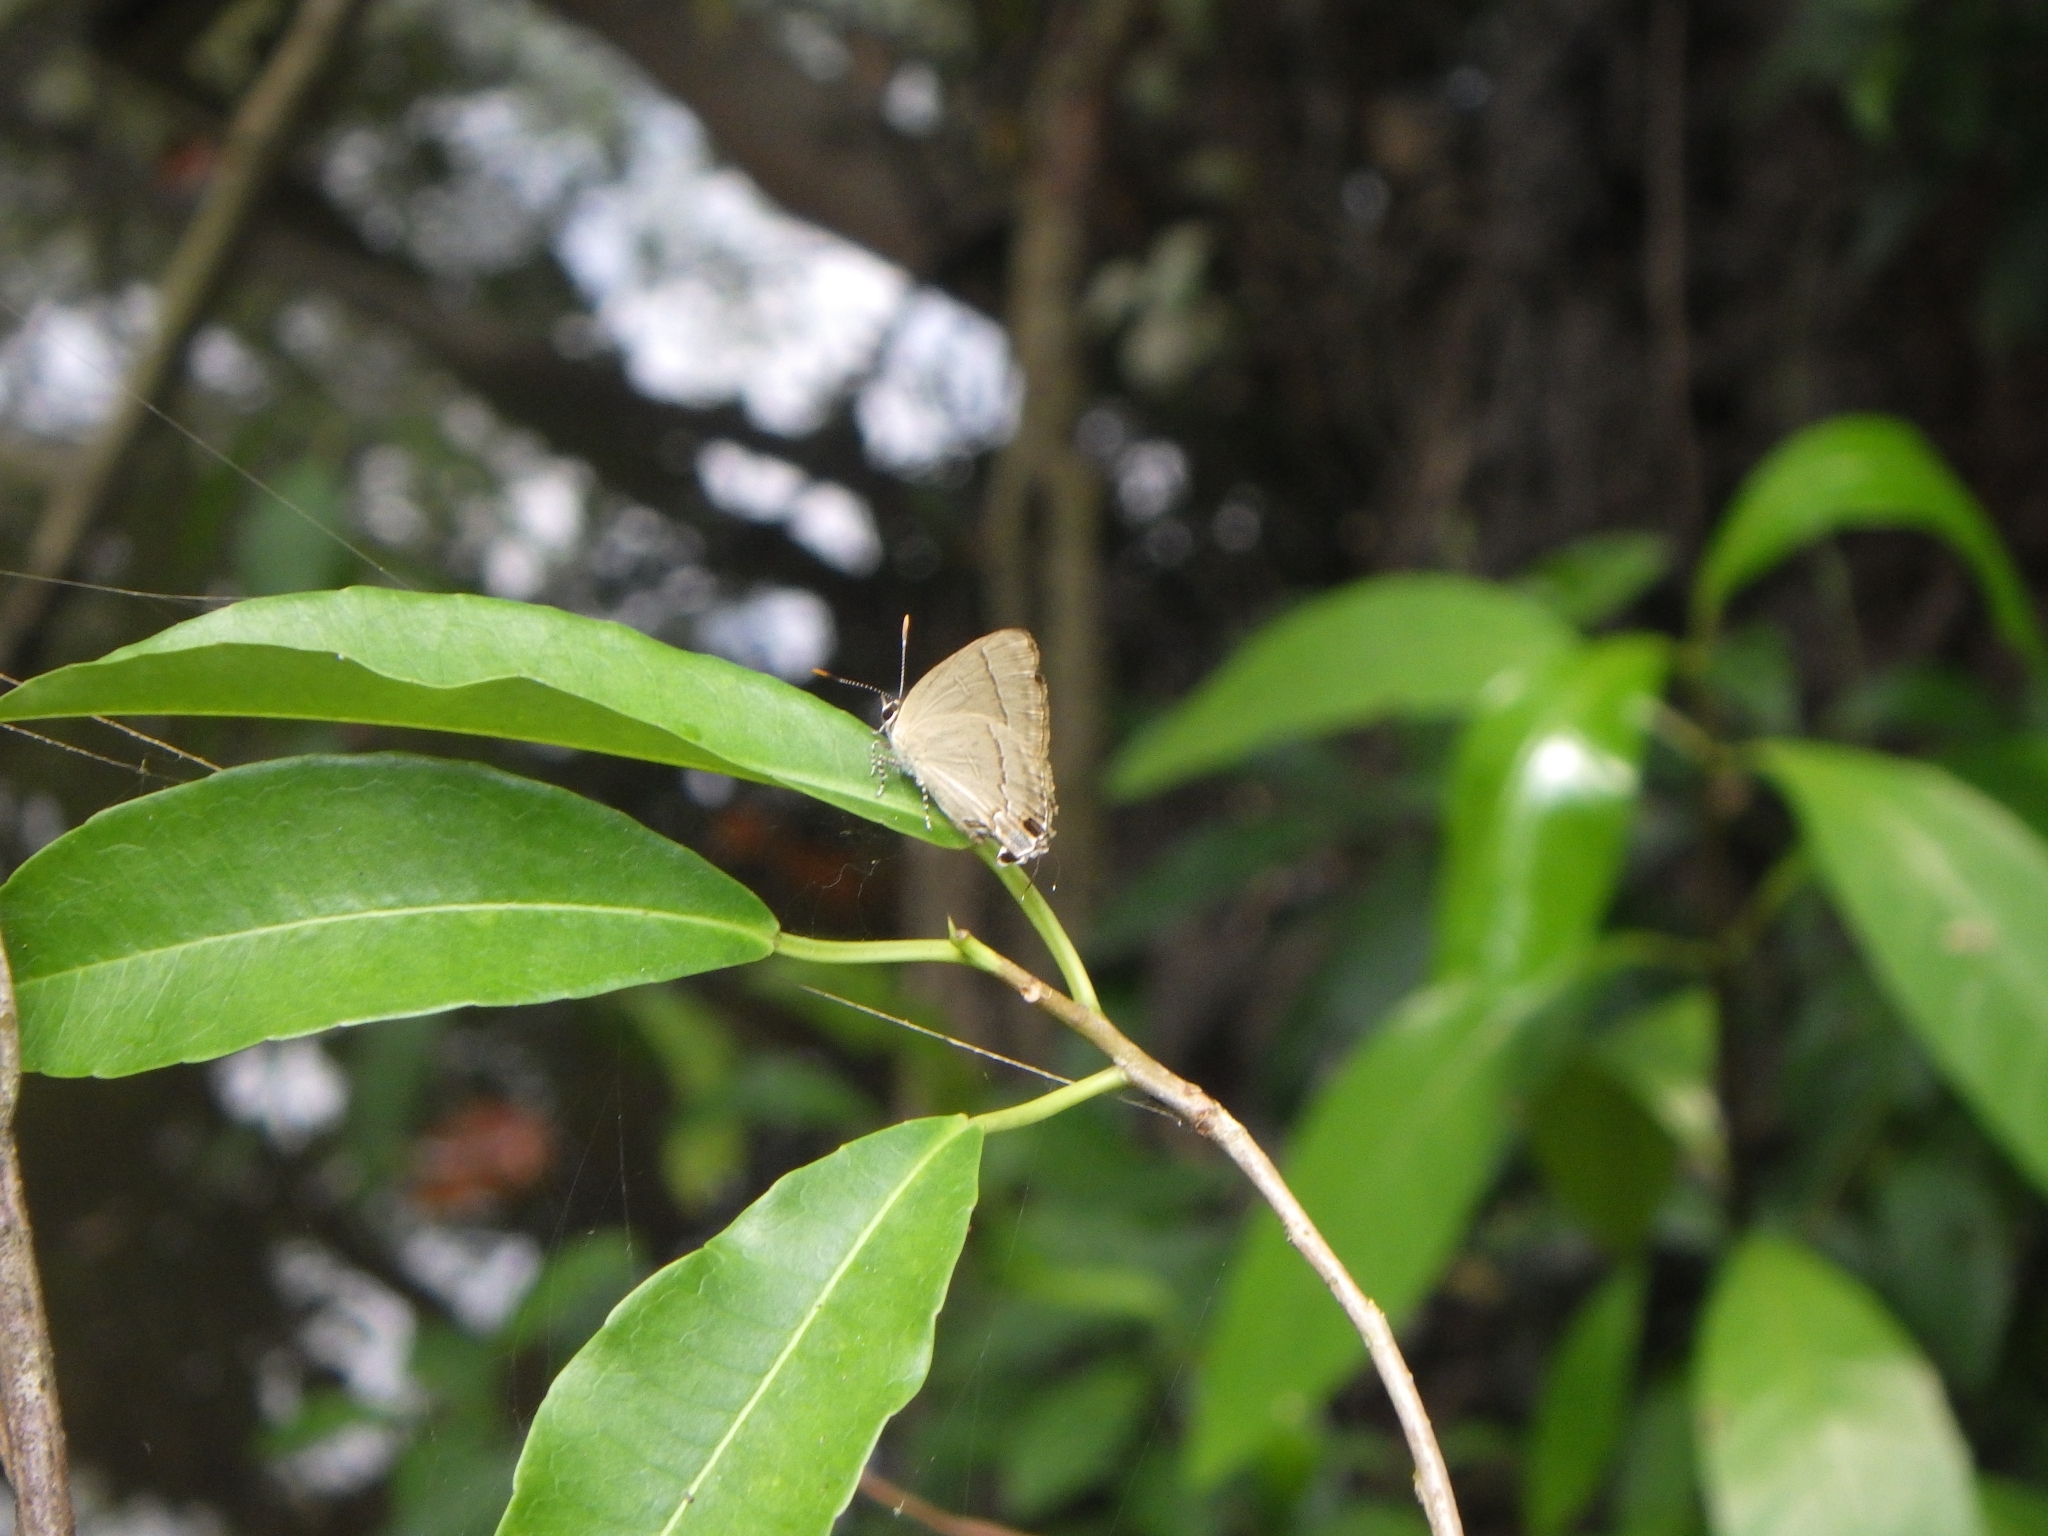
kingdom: Animalia
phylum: Arthropoda
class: Insecta
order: Lepidoptera
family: Lycaenidae
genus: Rapala
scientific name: Rapala manea
